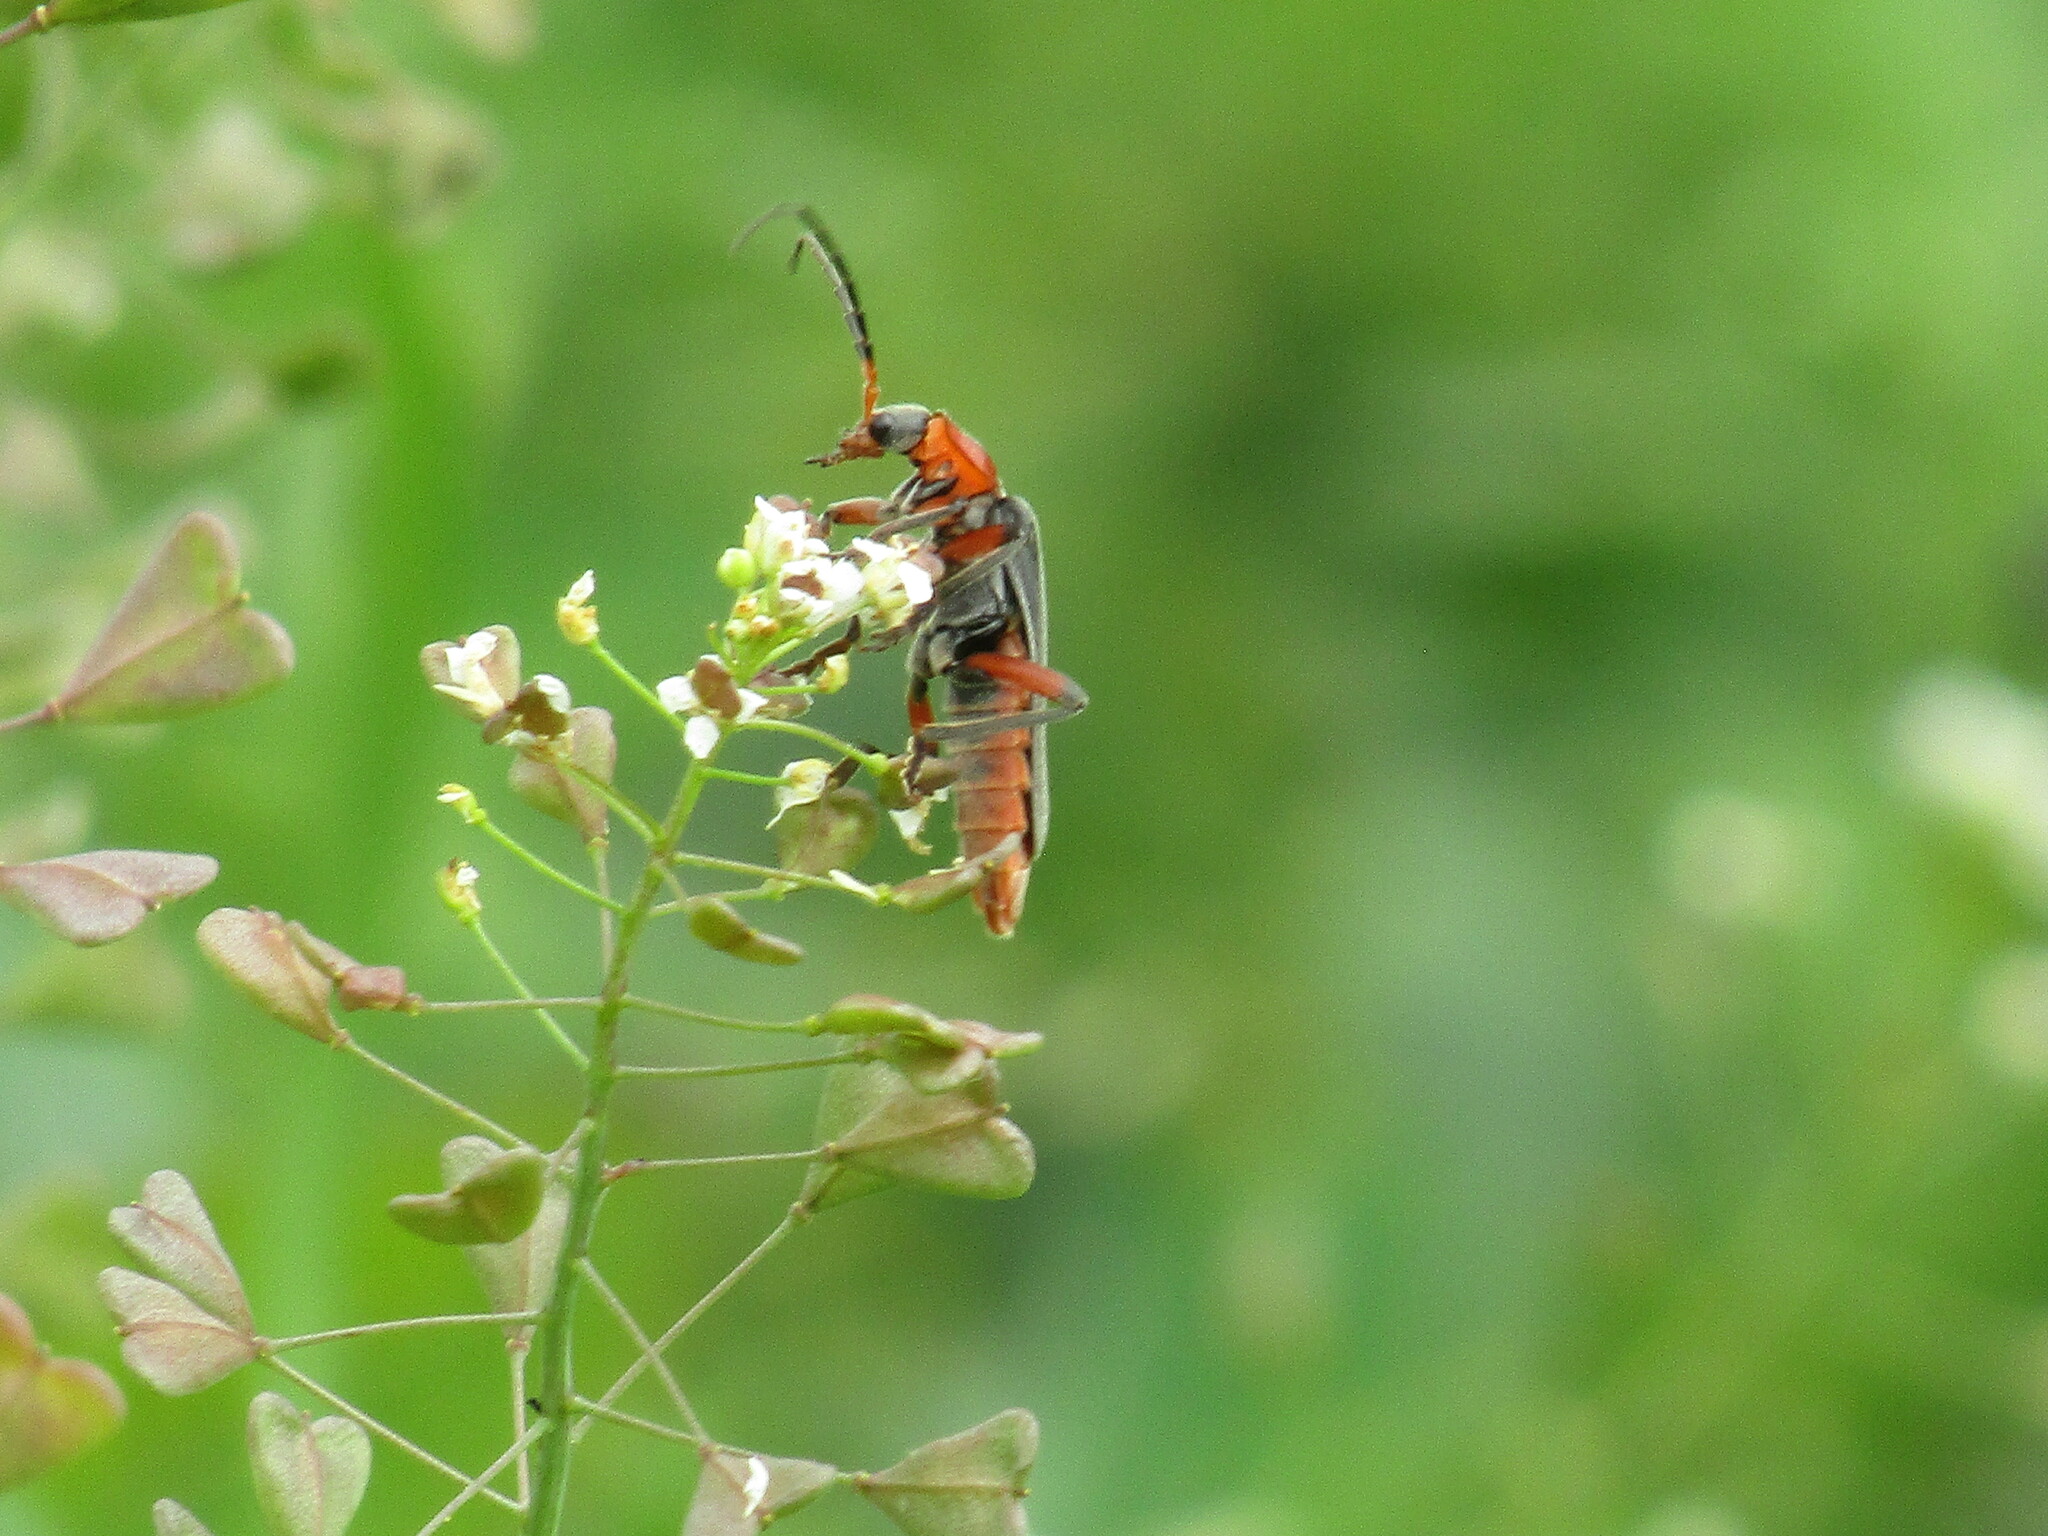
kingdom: Animalia
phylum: Arthropoda
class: Insecta
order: Coleoptera
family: Cantharidae
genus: Cantharis
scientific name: Cantharis rustica
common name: Soldier beetle
